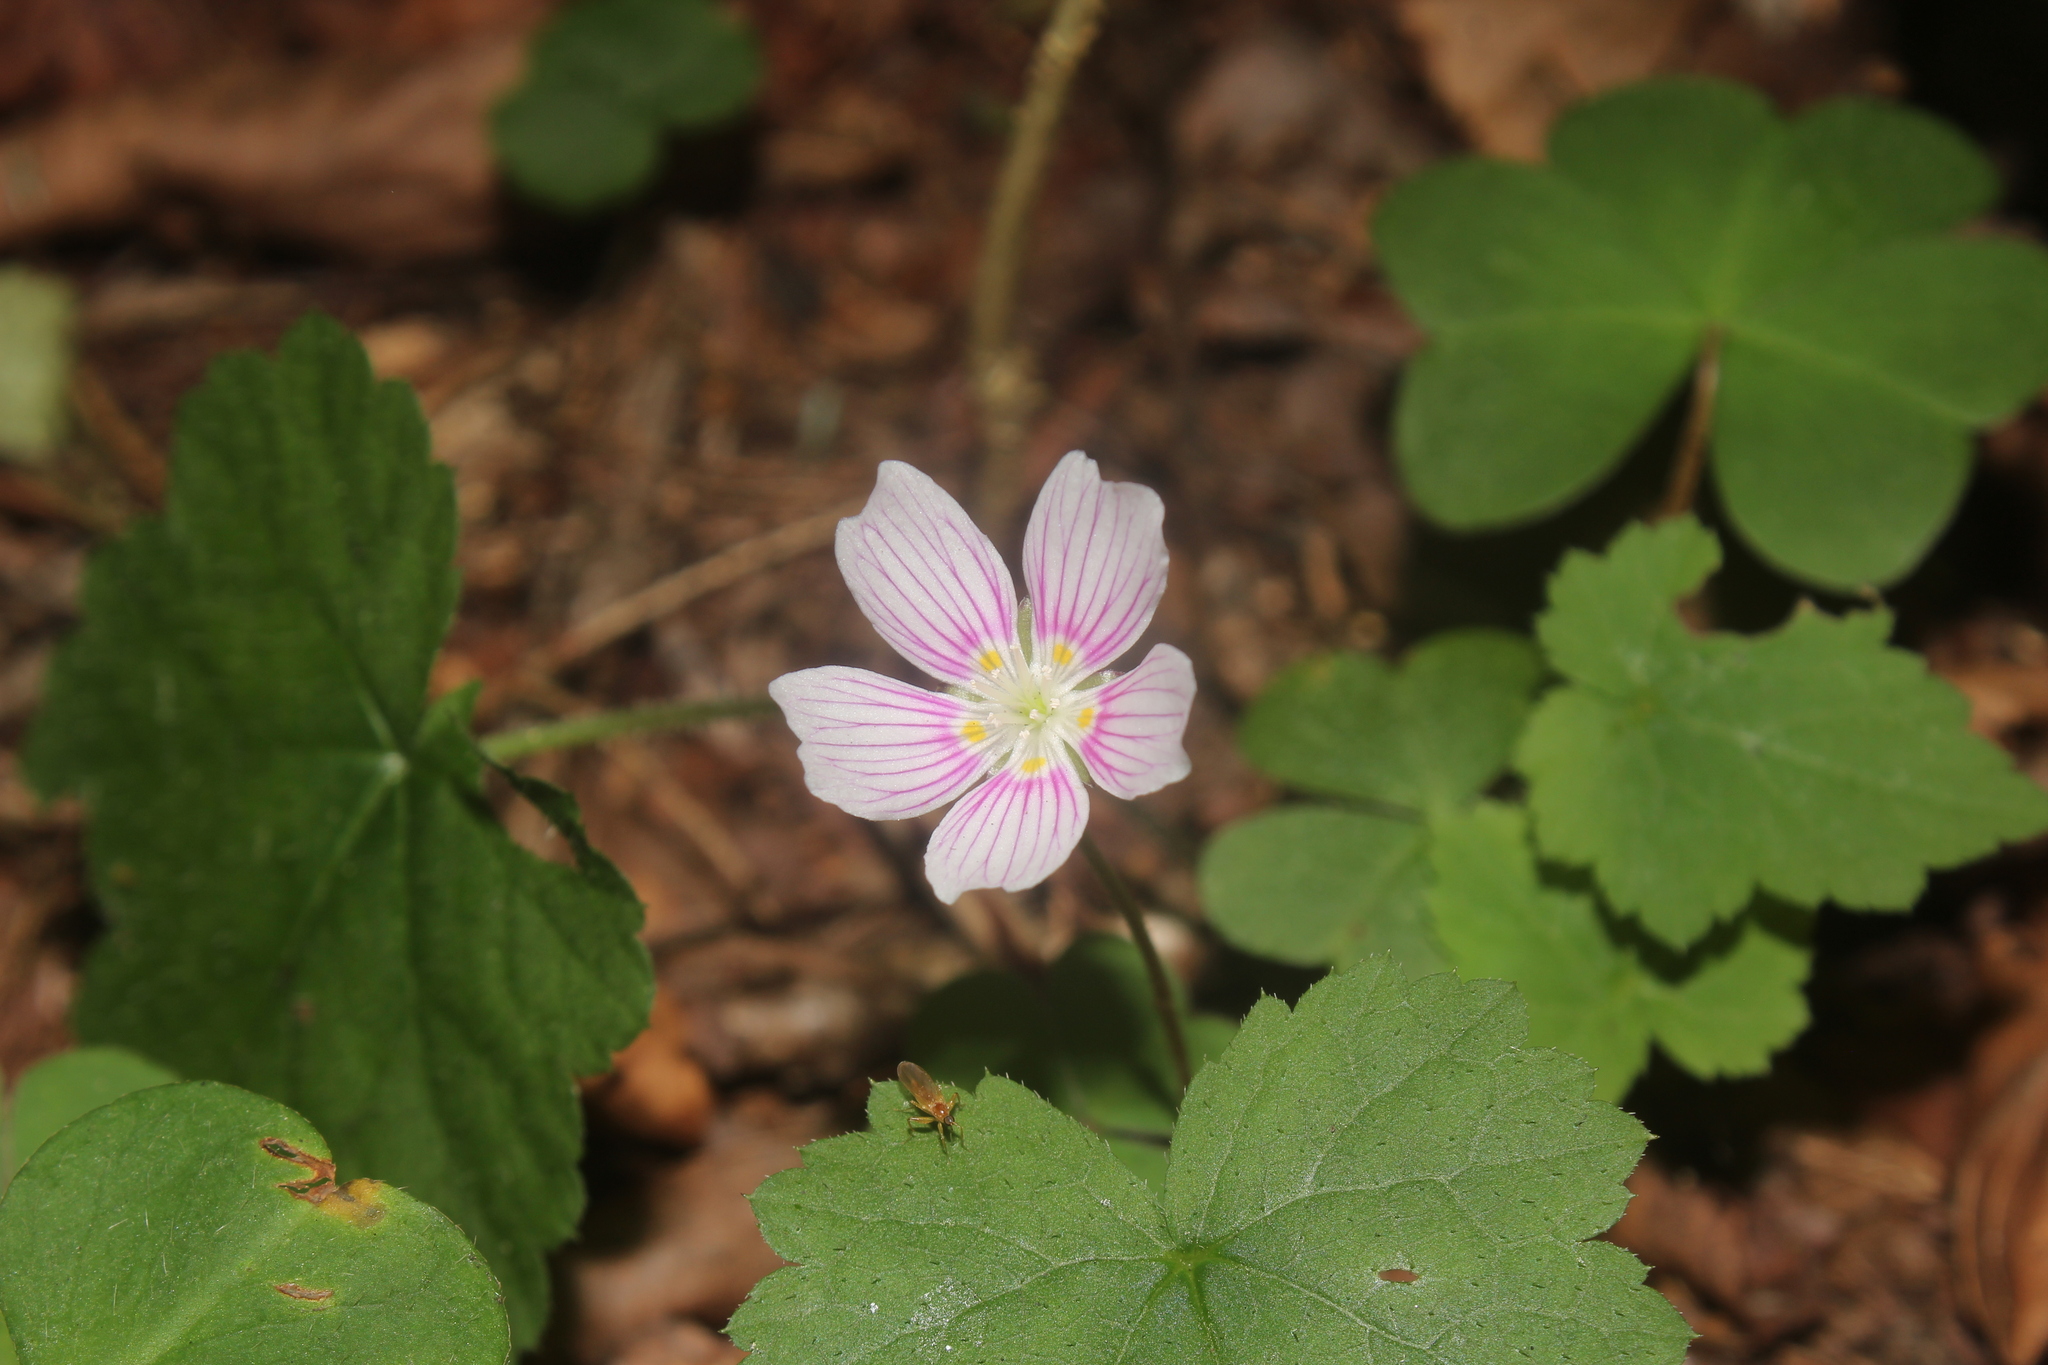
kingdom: Plantae
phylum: Tracheophyta
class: Magnoliopsida
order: Oxalidales
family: Oxalidaceae
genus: Oxalis
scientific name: Oxalis montana
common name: American wood-sorrel
